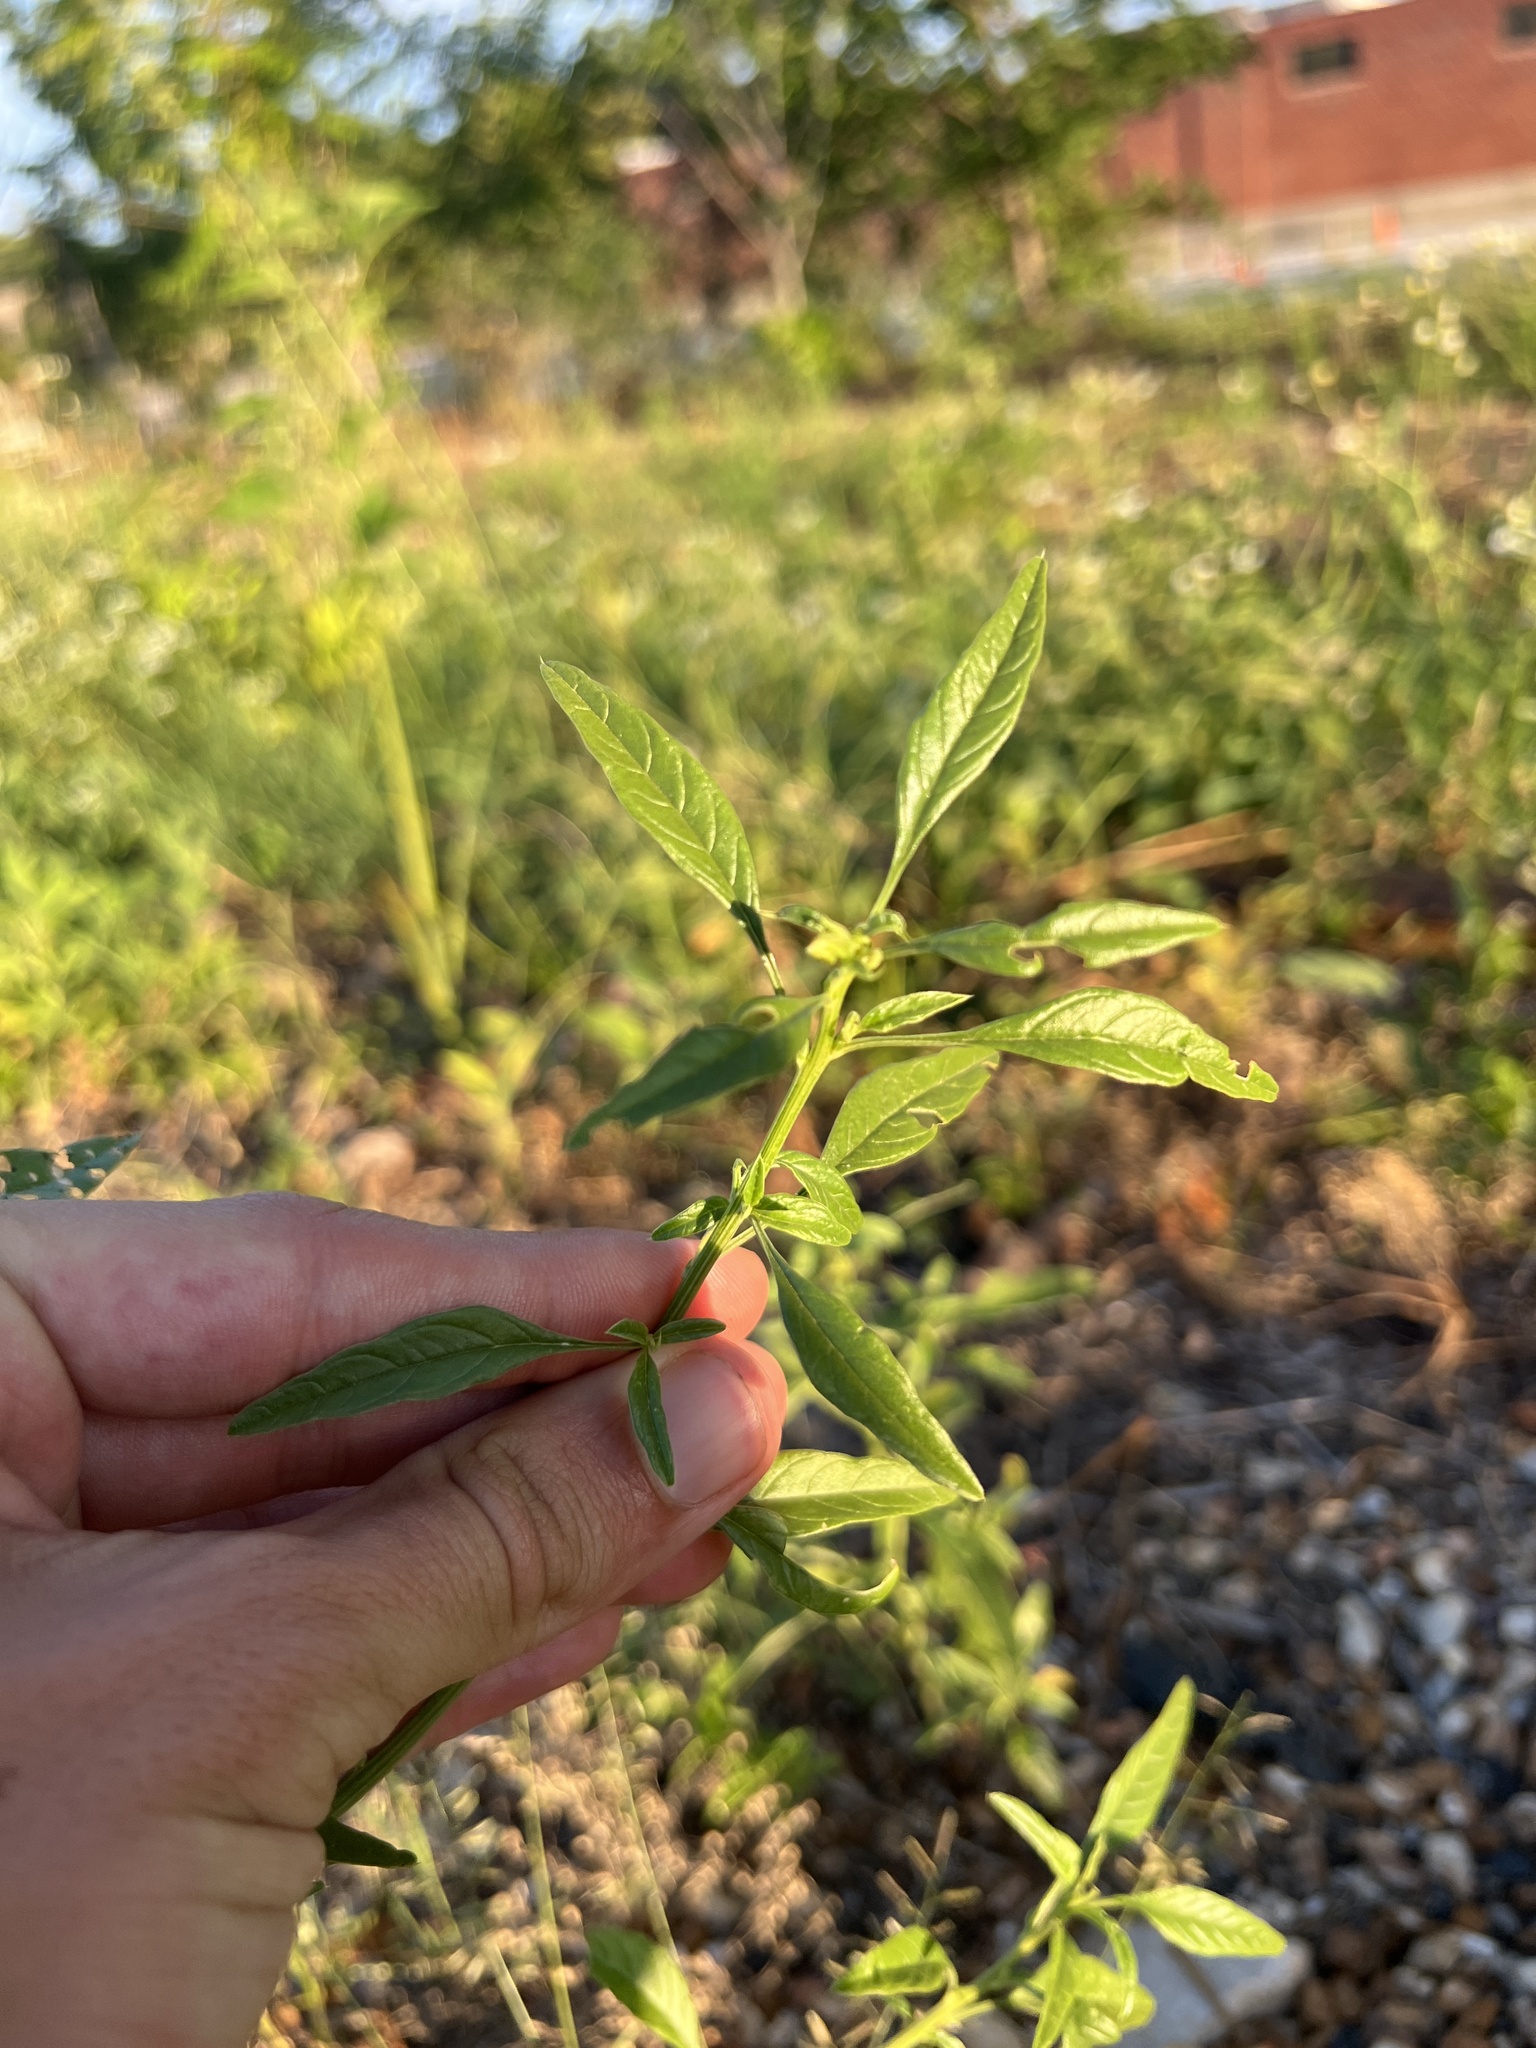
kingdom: Plantae
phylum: Tracheophyta
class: Magnoliopsida
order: Caryophyllales
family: Amaranthaceae
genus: Amaranthus
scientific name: Amaranthus tuberculatus
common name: Rough-fruit amaranth
